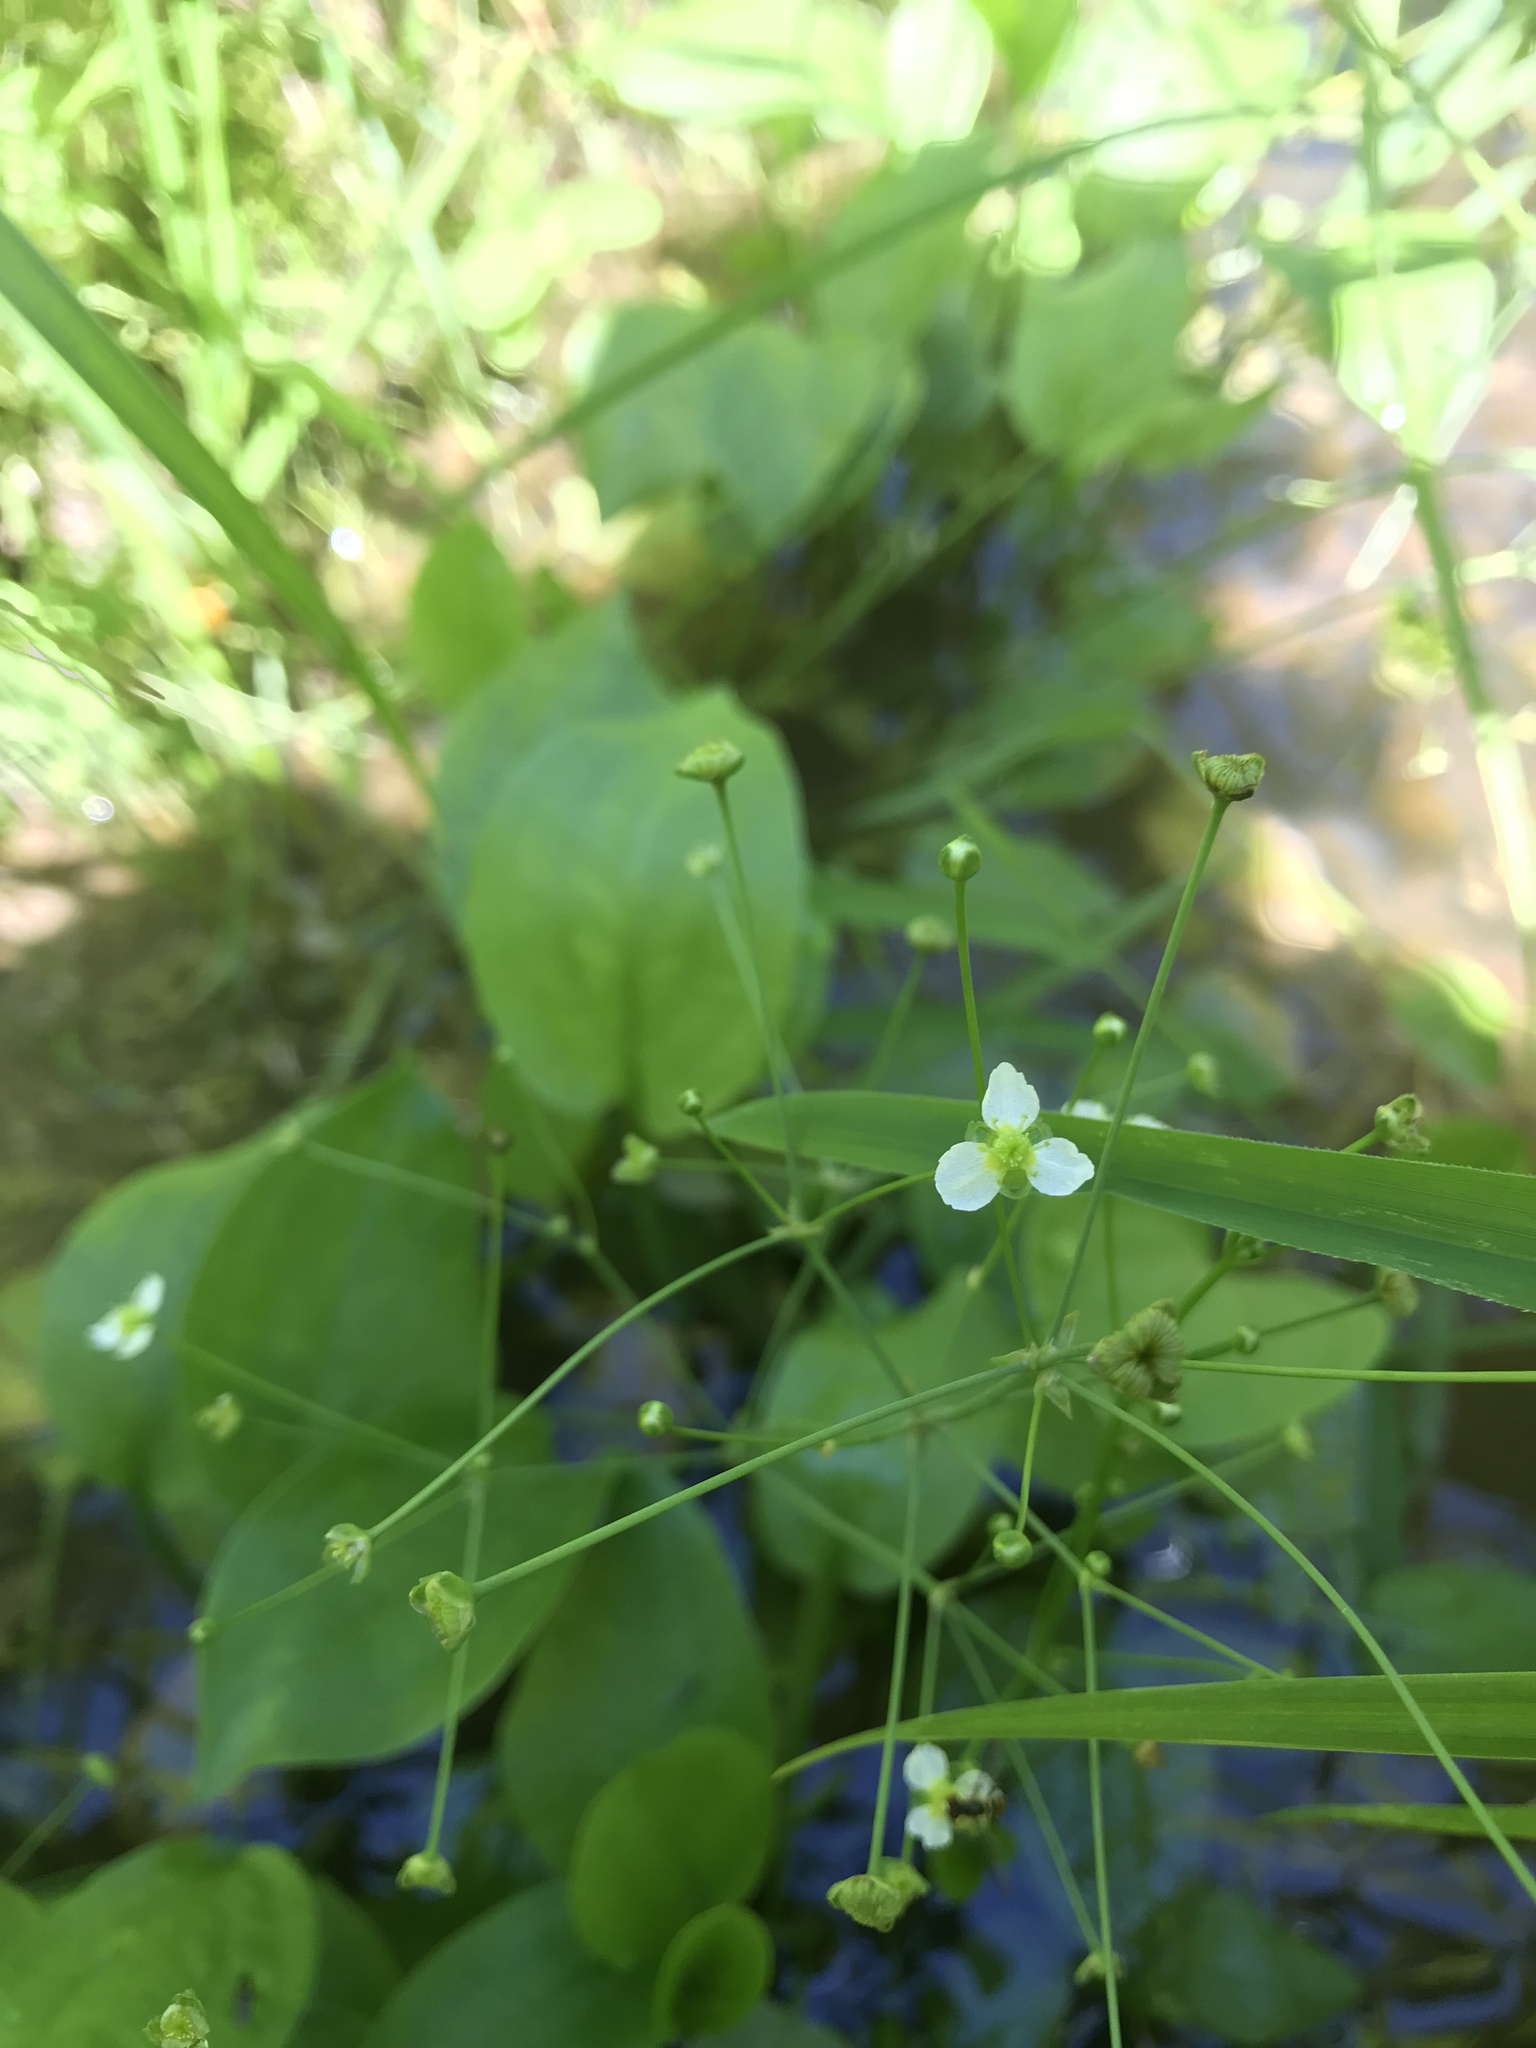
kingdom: Plantae
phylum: Tracheophyta
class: Liliopsida
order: Alismatales
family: Alismataceae
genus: Alisma
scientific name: Alisma triviale
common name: Northern water-plantain
